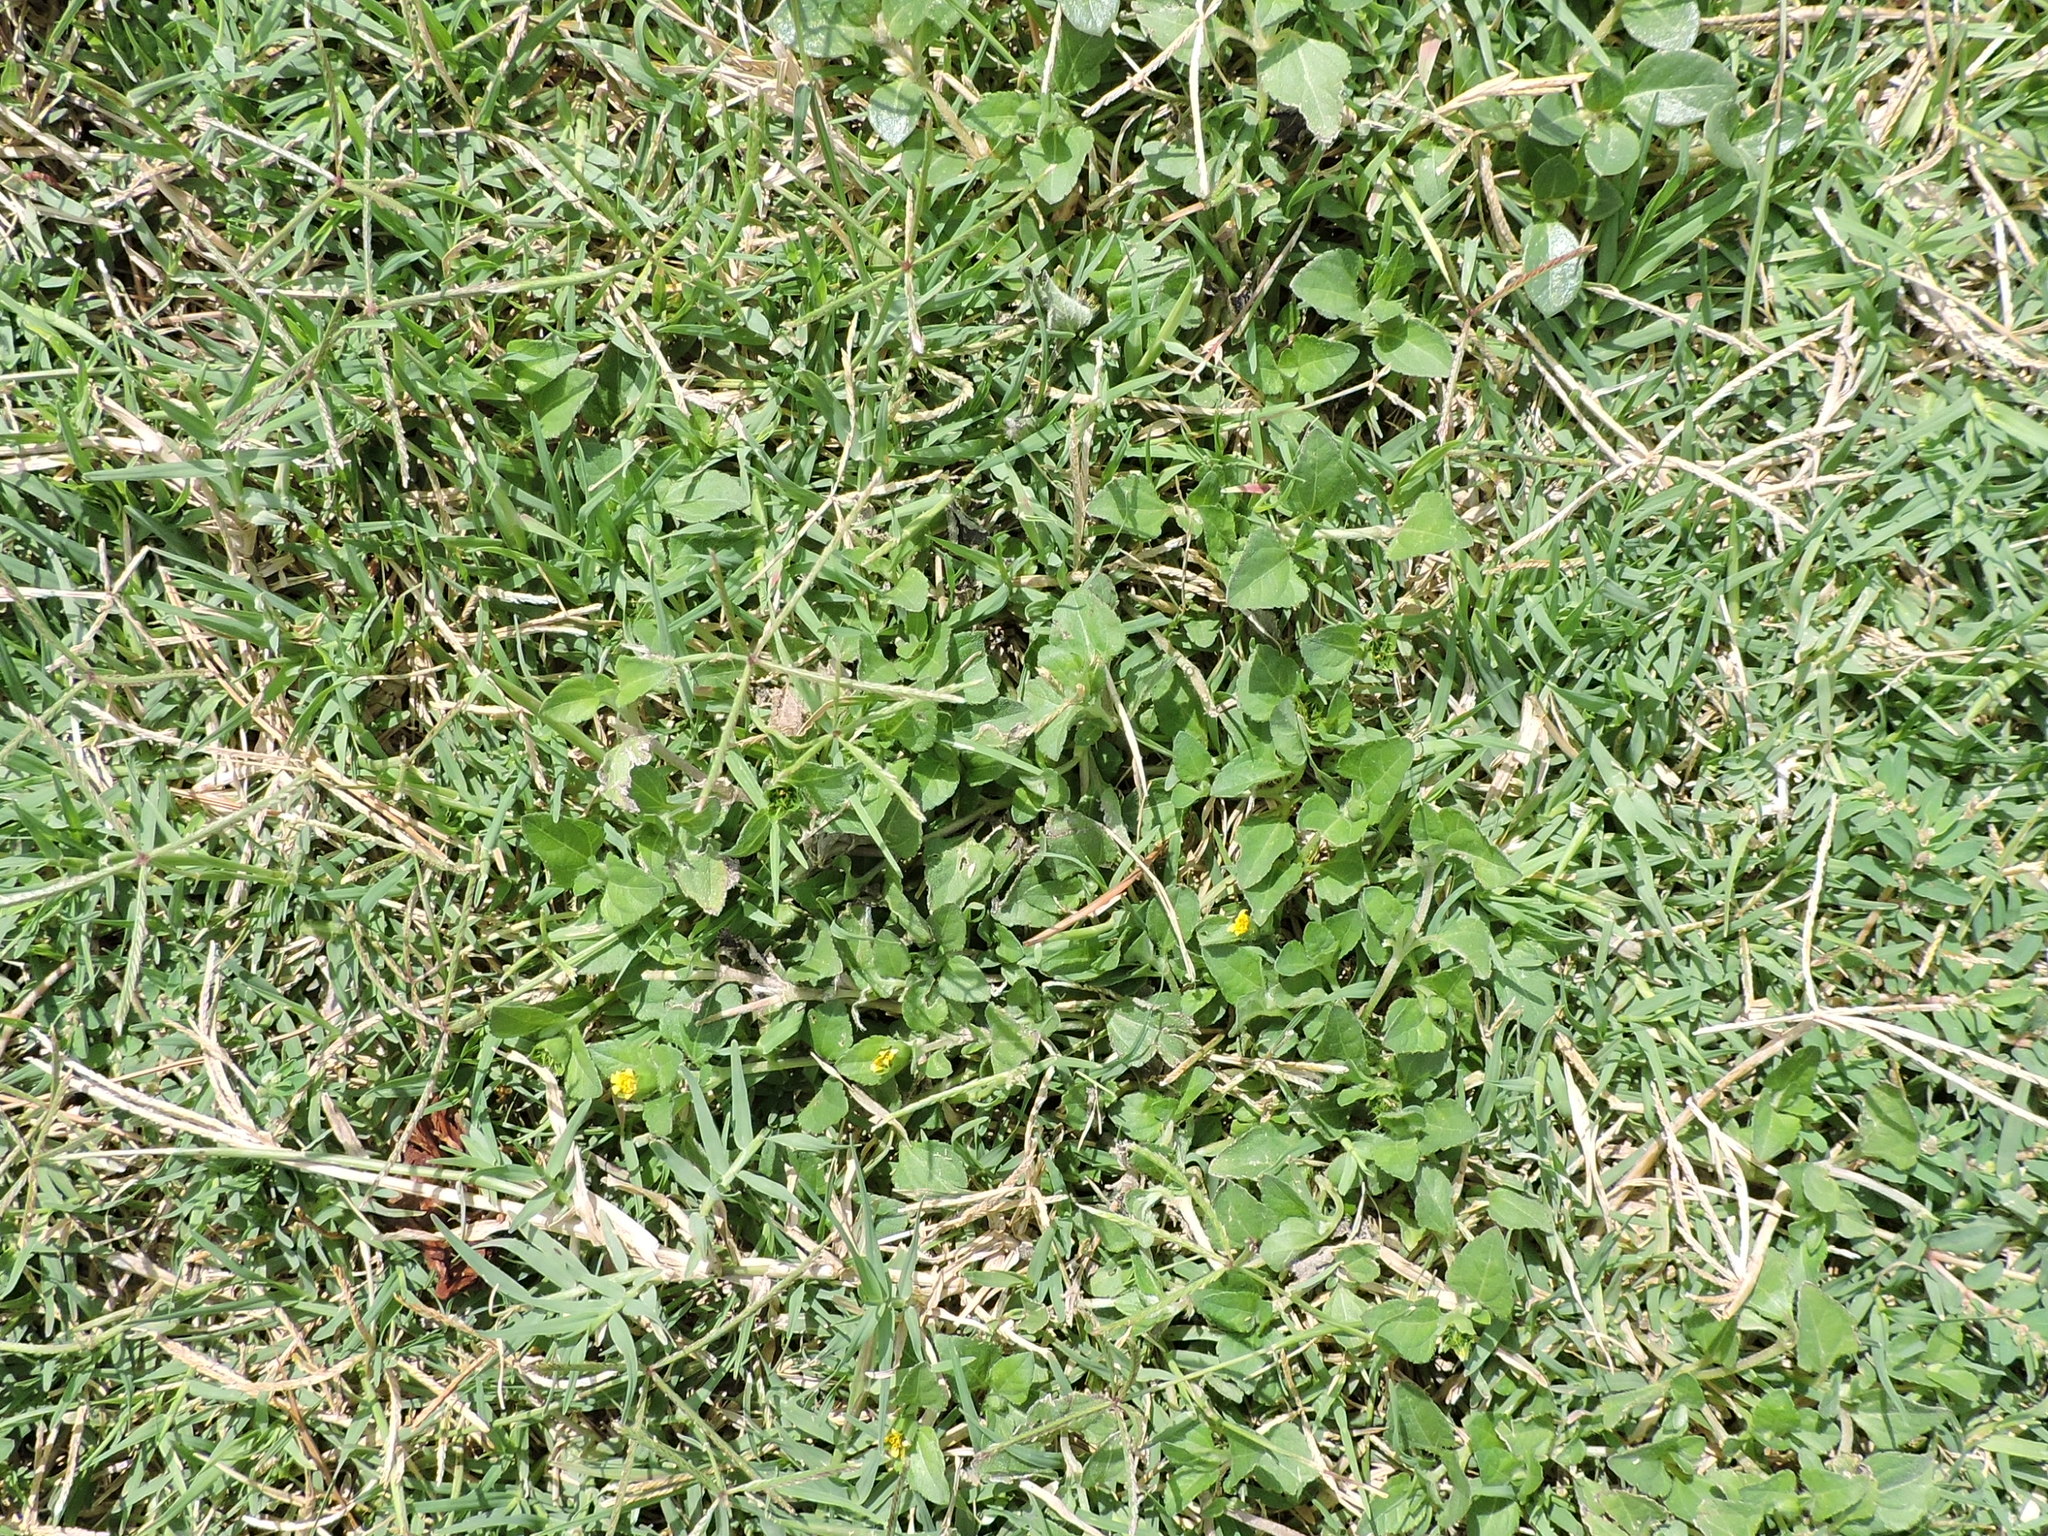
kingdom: Plantae
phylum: Tracheophyta
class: Magnoliopsida
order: Asterales
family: Asteraceae
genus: Calyptocarpus
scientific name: Calyptocarpus vialis
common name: Straggler daisy
